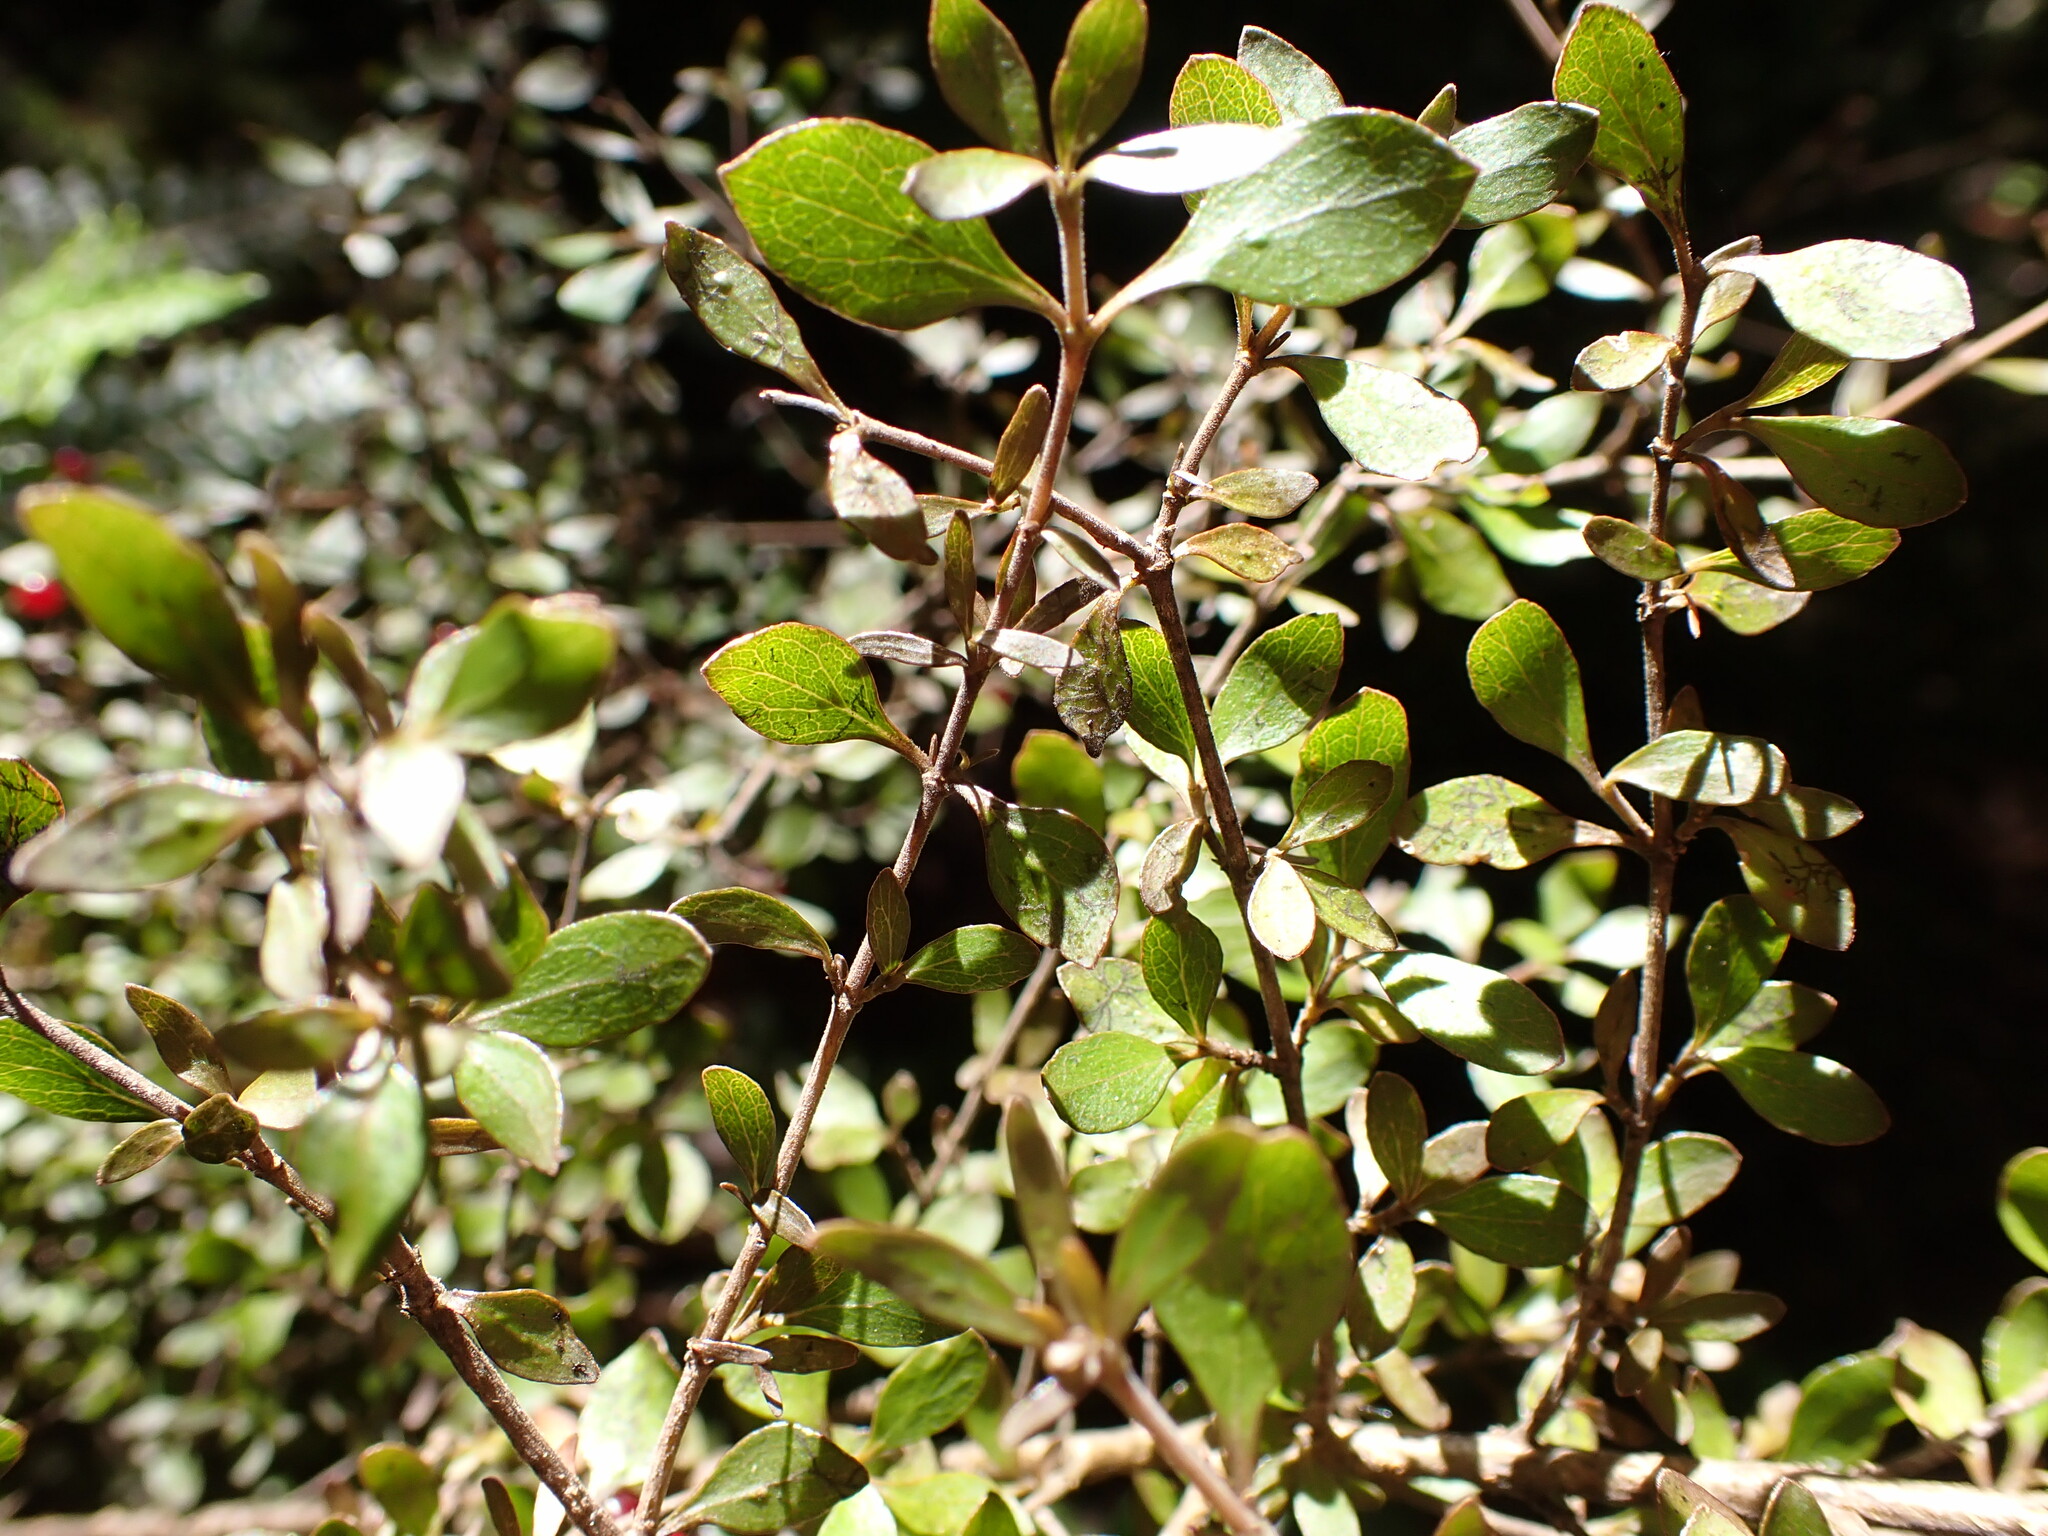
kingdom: Plantae
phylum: Tracheophyta
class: Magnoliopsida
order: Gentianales
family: Rubiaceae
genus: Coprosma
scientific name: Coprosma rhamnoides
